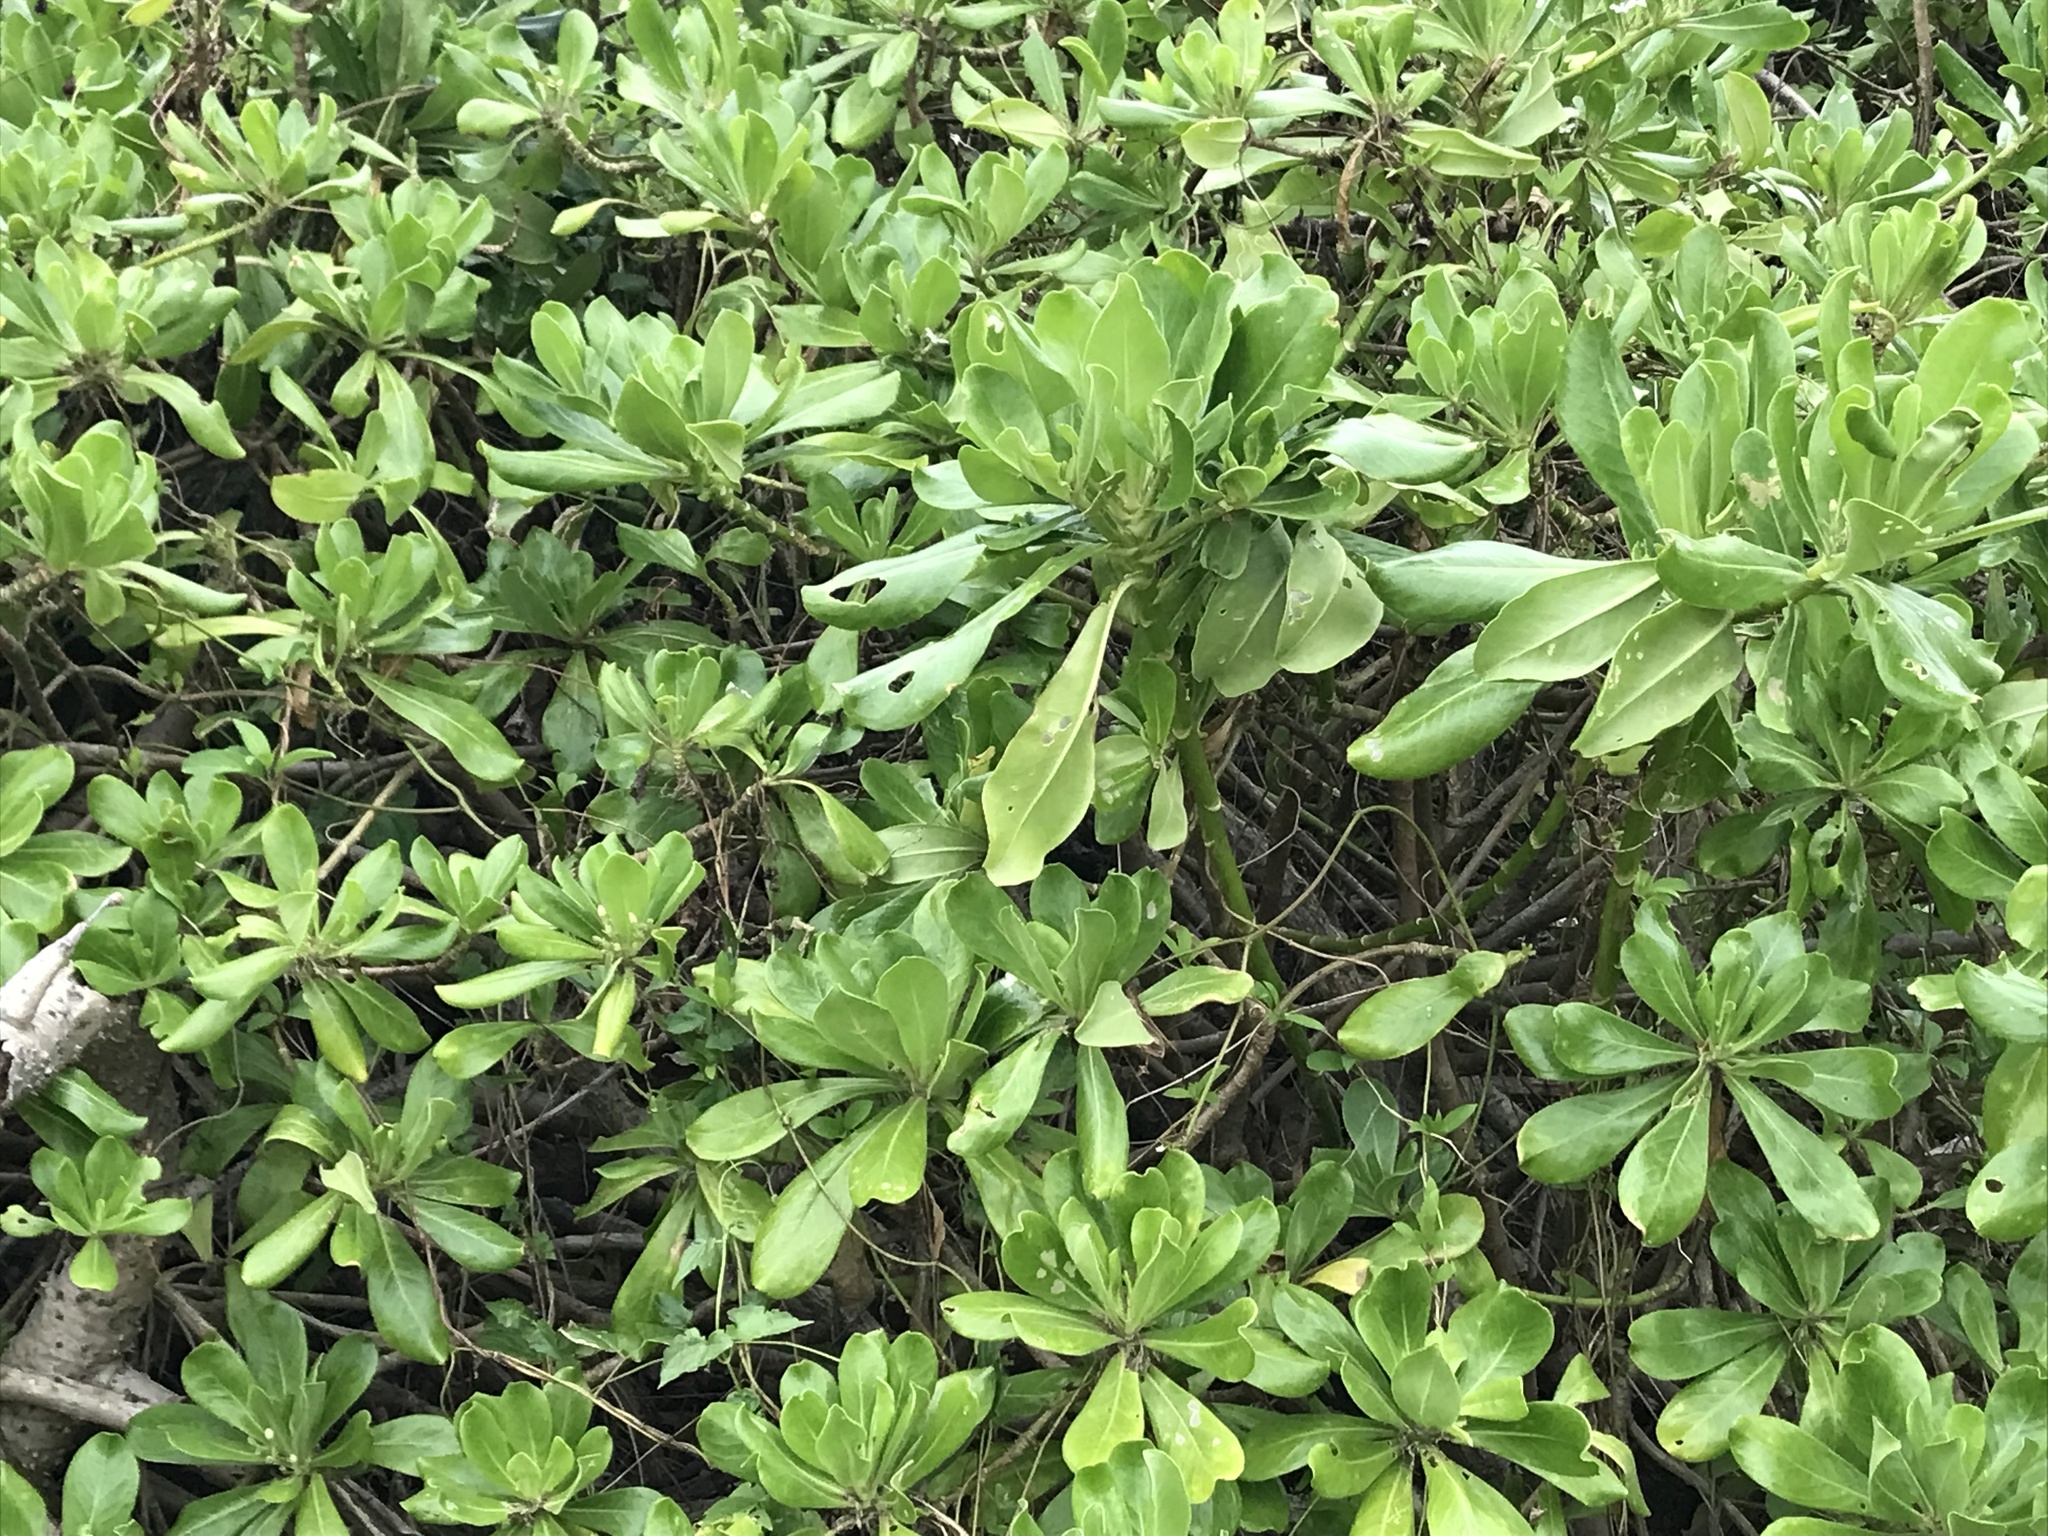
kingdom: Plantae
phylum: Tracheophyta
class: Magnoliopsida
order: Asterales
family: Goodeniaceae
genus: Scaevola
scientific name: Scaevola taccada
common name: Sea lettucetree
